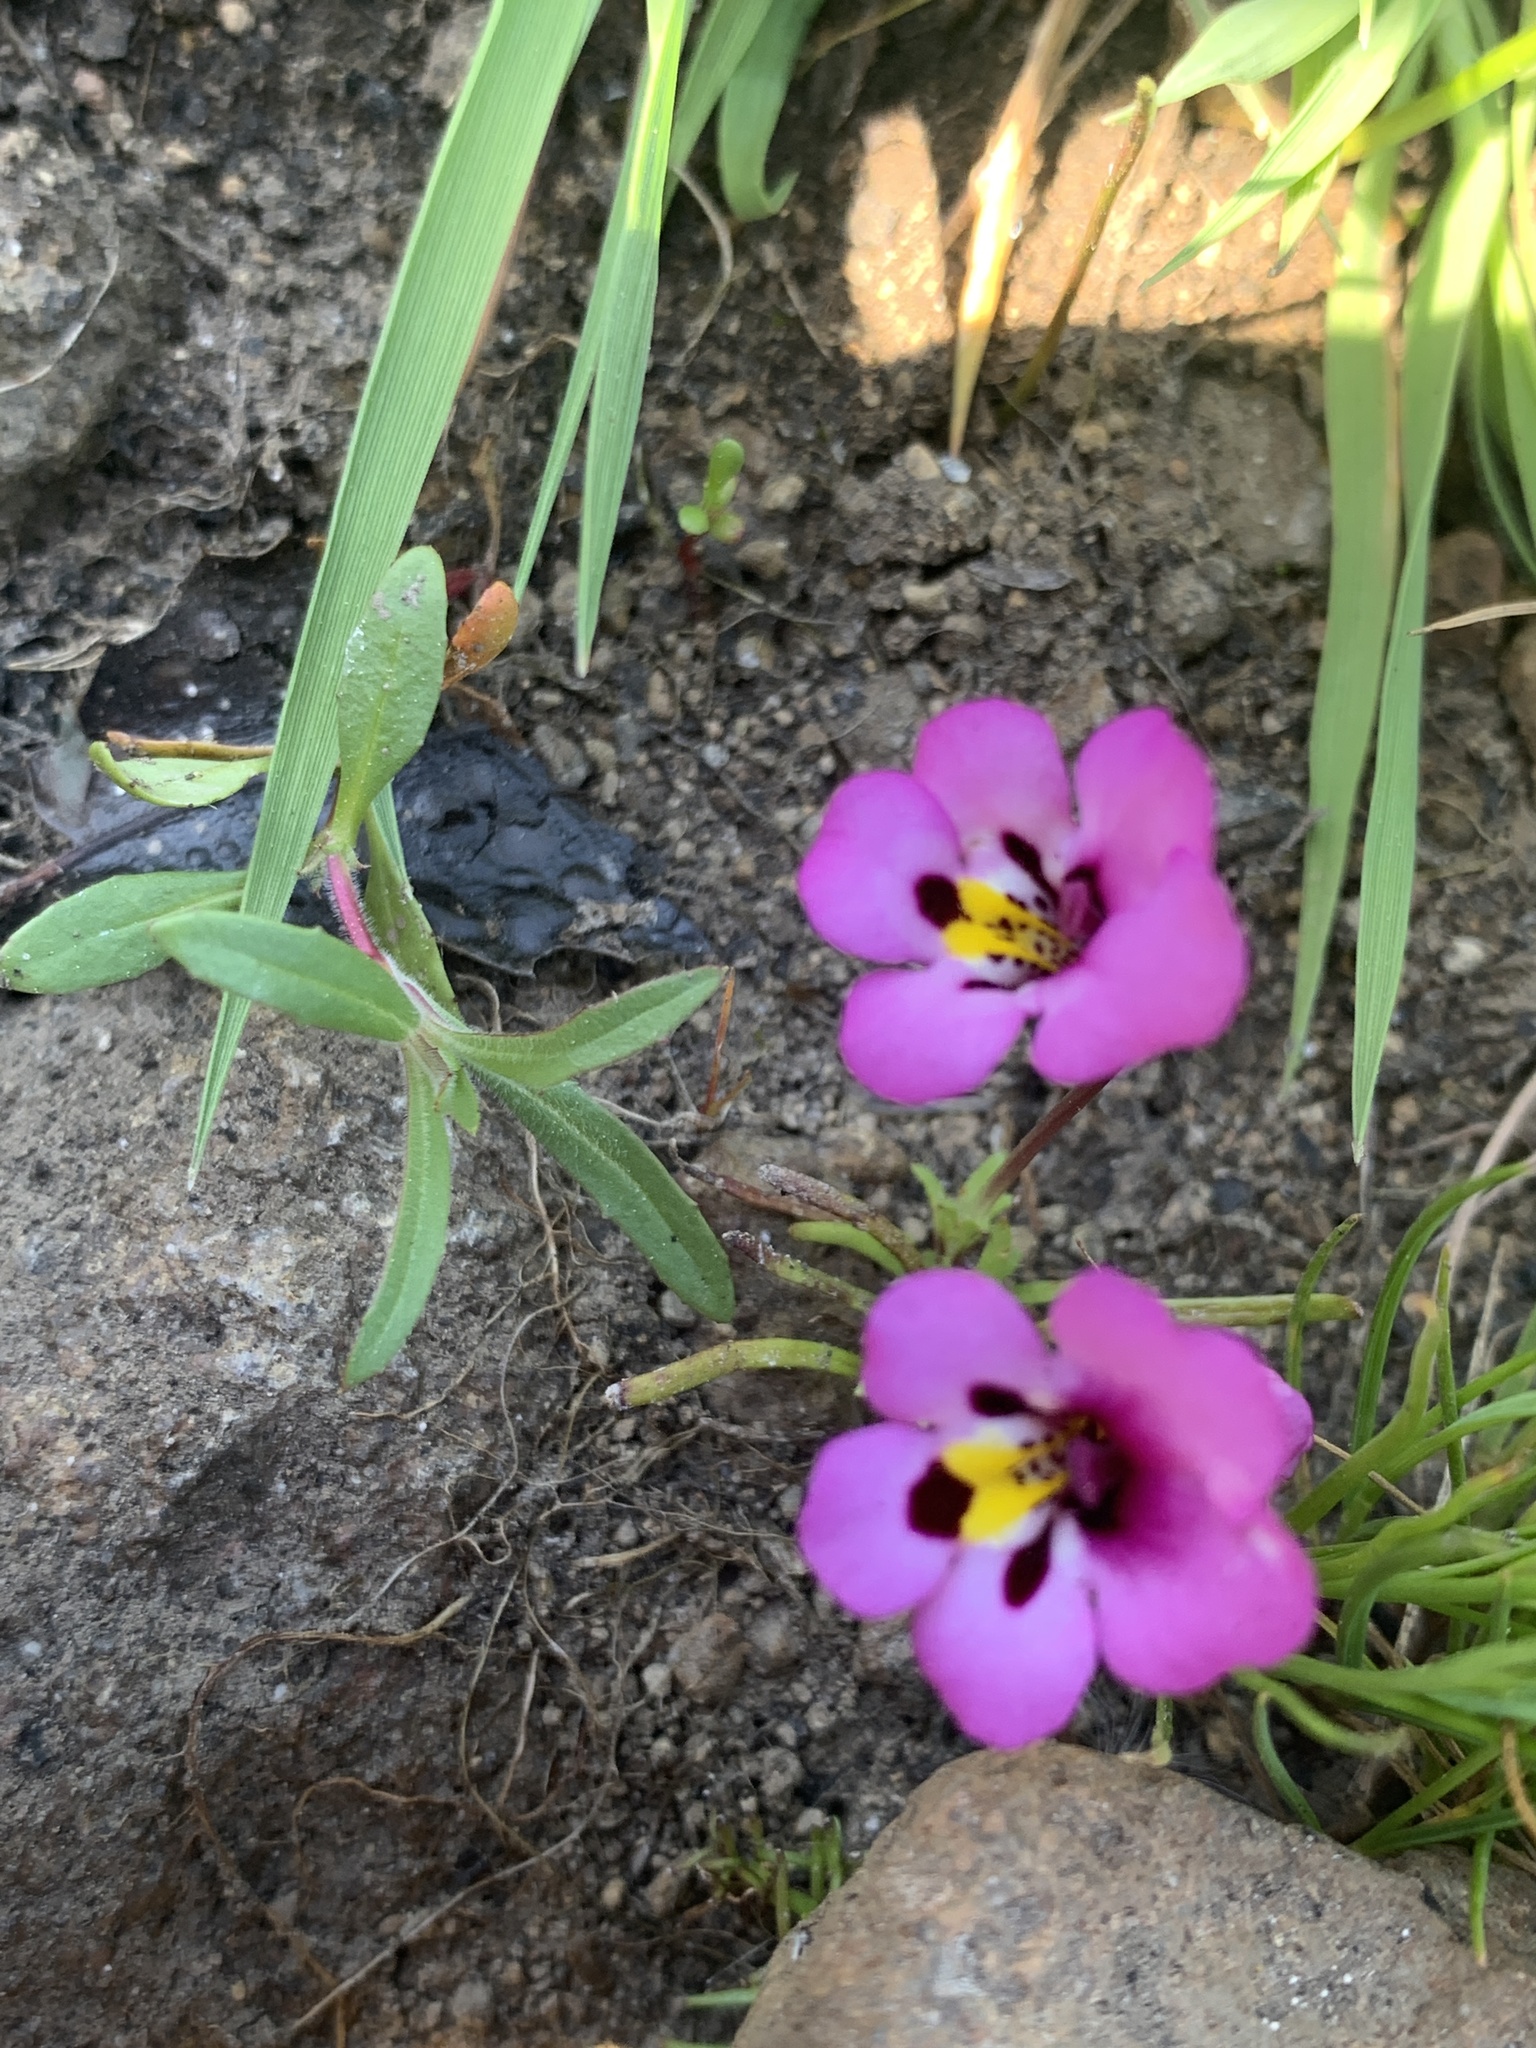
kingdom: Plantae
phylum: Tracheophyta
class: Magnoliopsida
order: Lamiales
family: Phrymaceae
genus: Diplacus
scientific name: Diplacus angustatus
